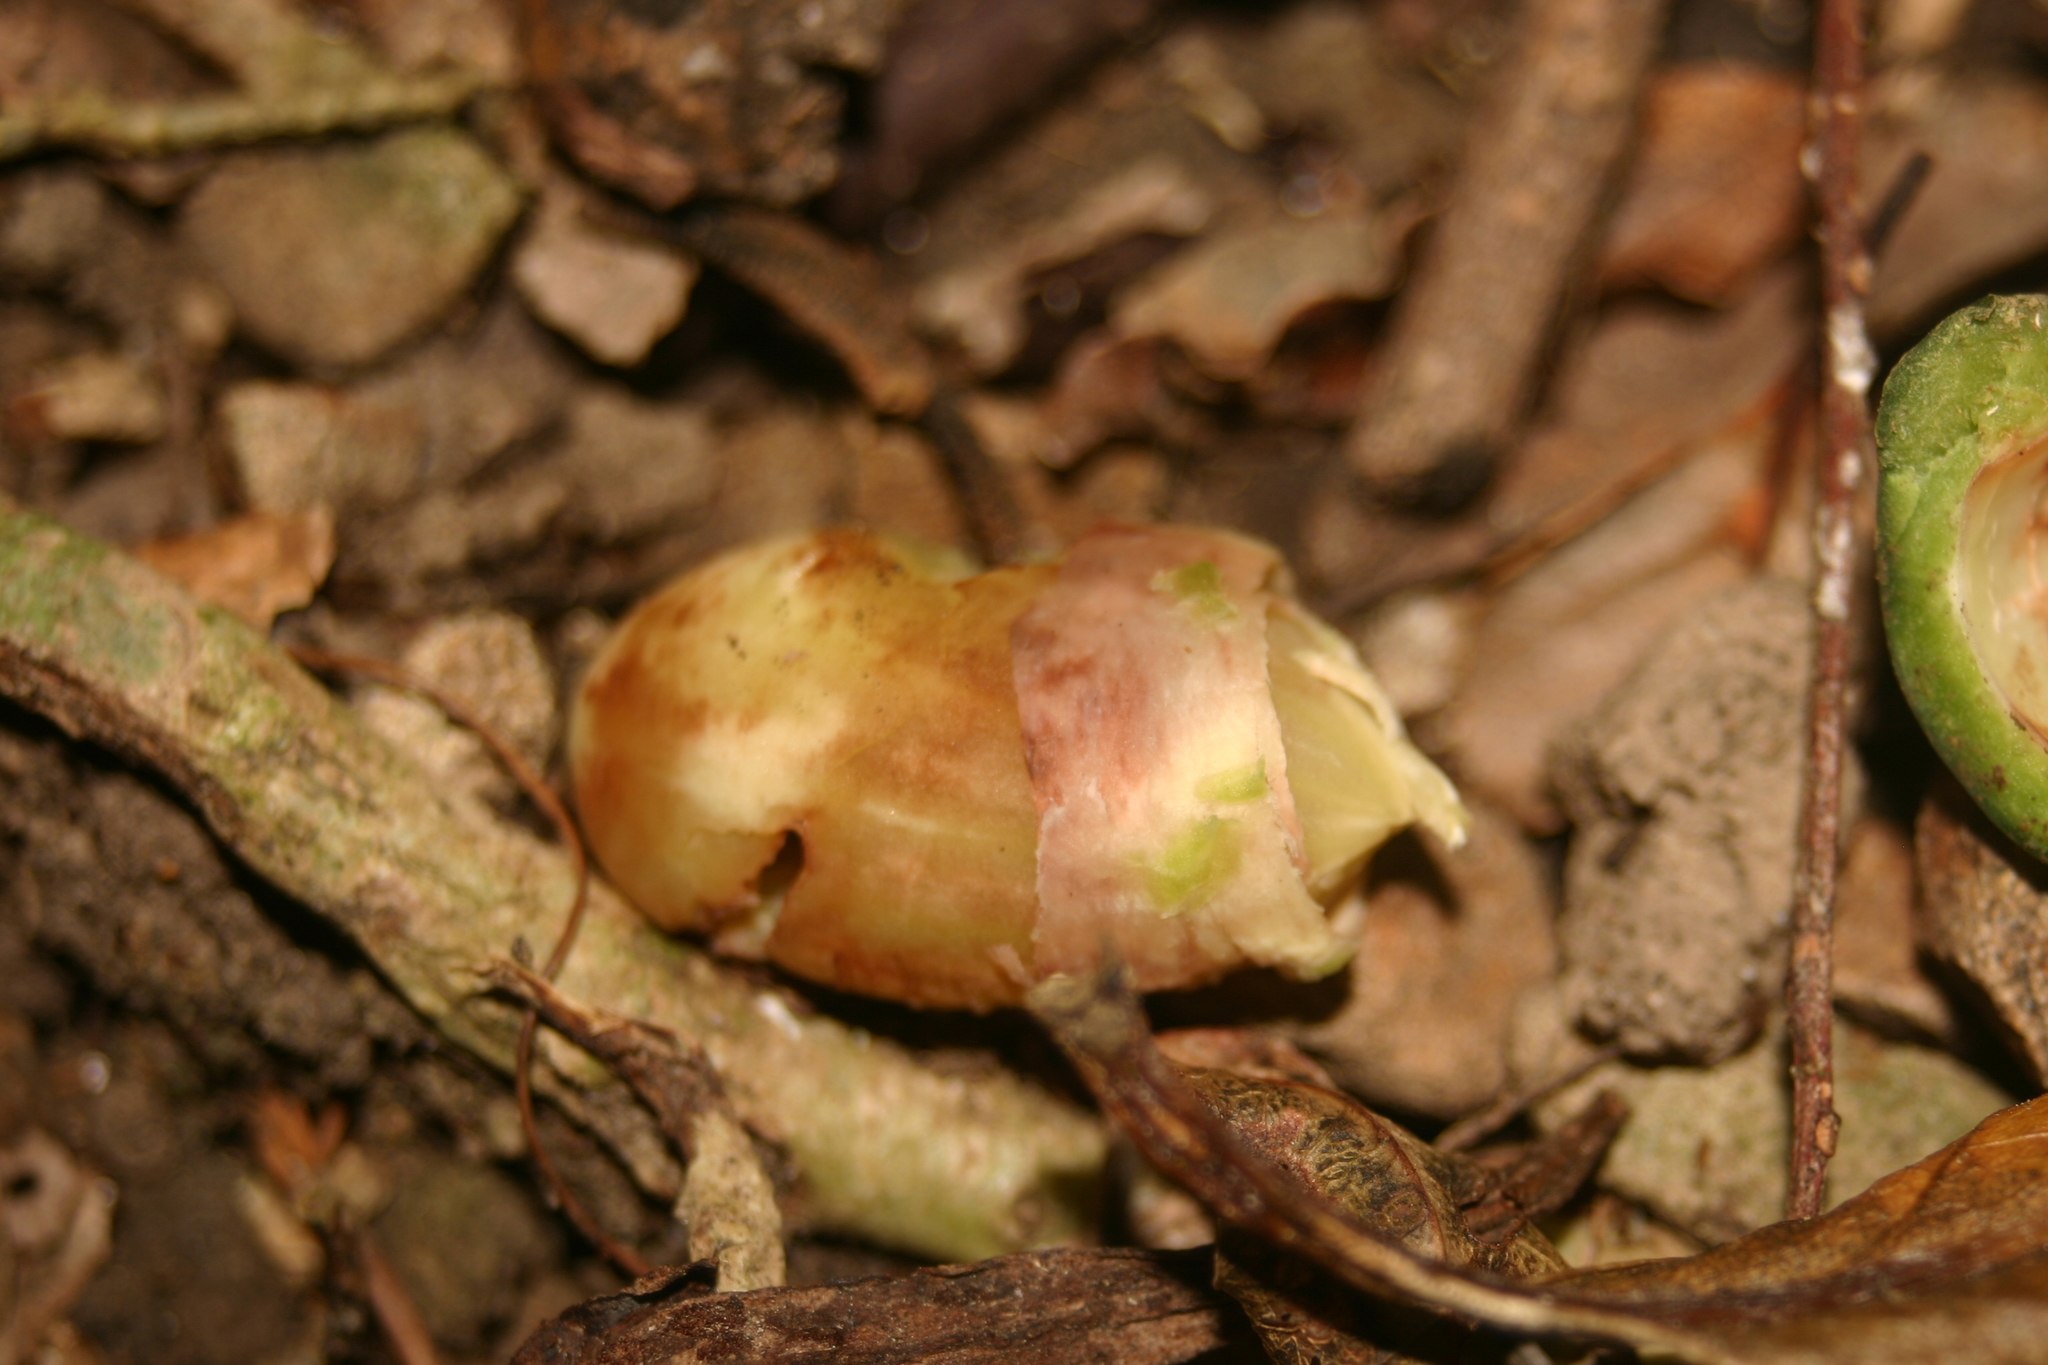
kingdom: Plantae
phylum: Tracheophyta
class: Magnoliopsida
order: Laurales
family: Monimiaceae
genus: Hedycarya
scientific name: Hedycarya arborea
